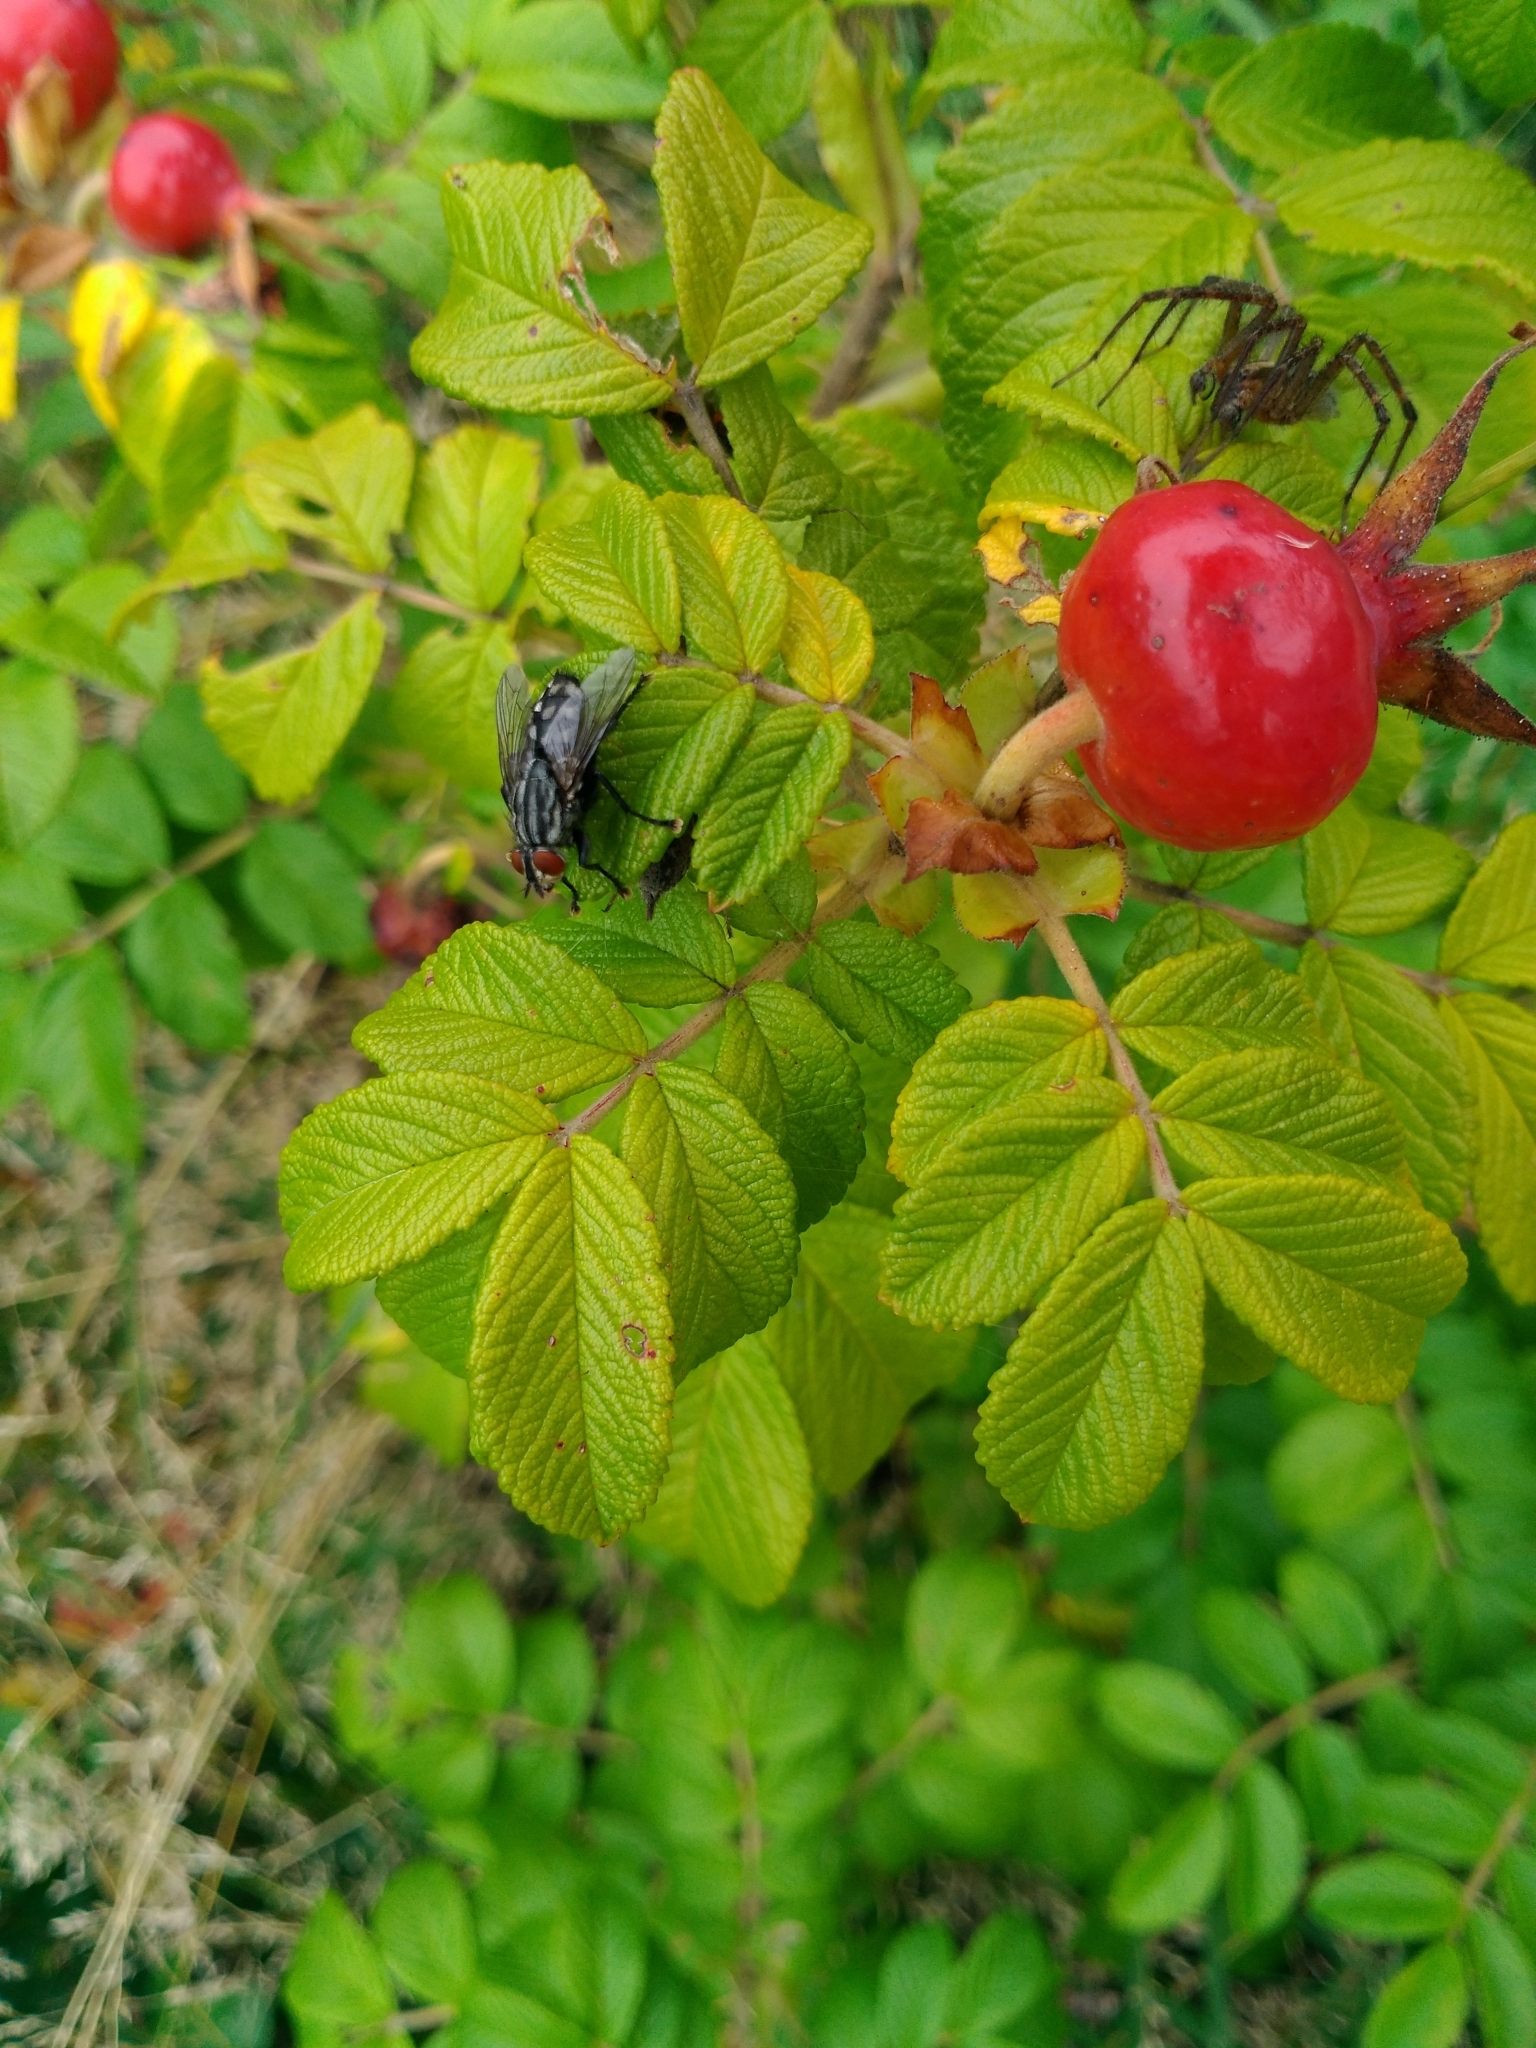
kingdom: Plantae
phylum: Tracheophyta
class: Magnoliopsida
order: Rosales
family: Rosaceae
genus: Rosa
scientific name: Rosa rugosa
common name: Japanese rose
